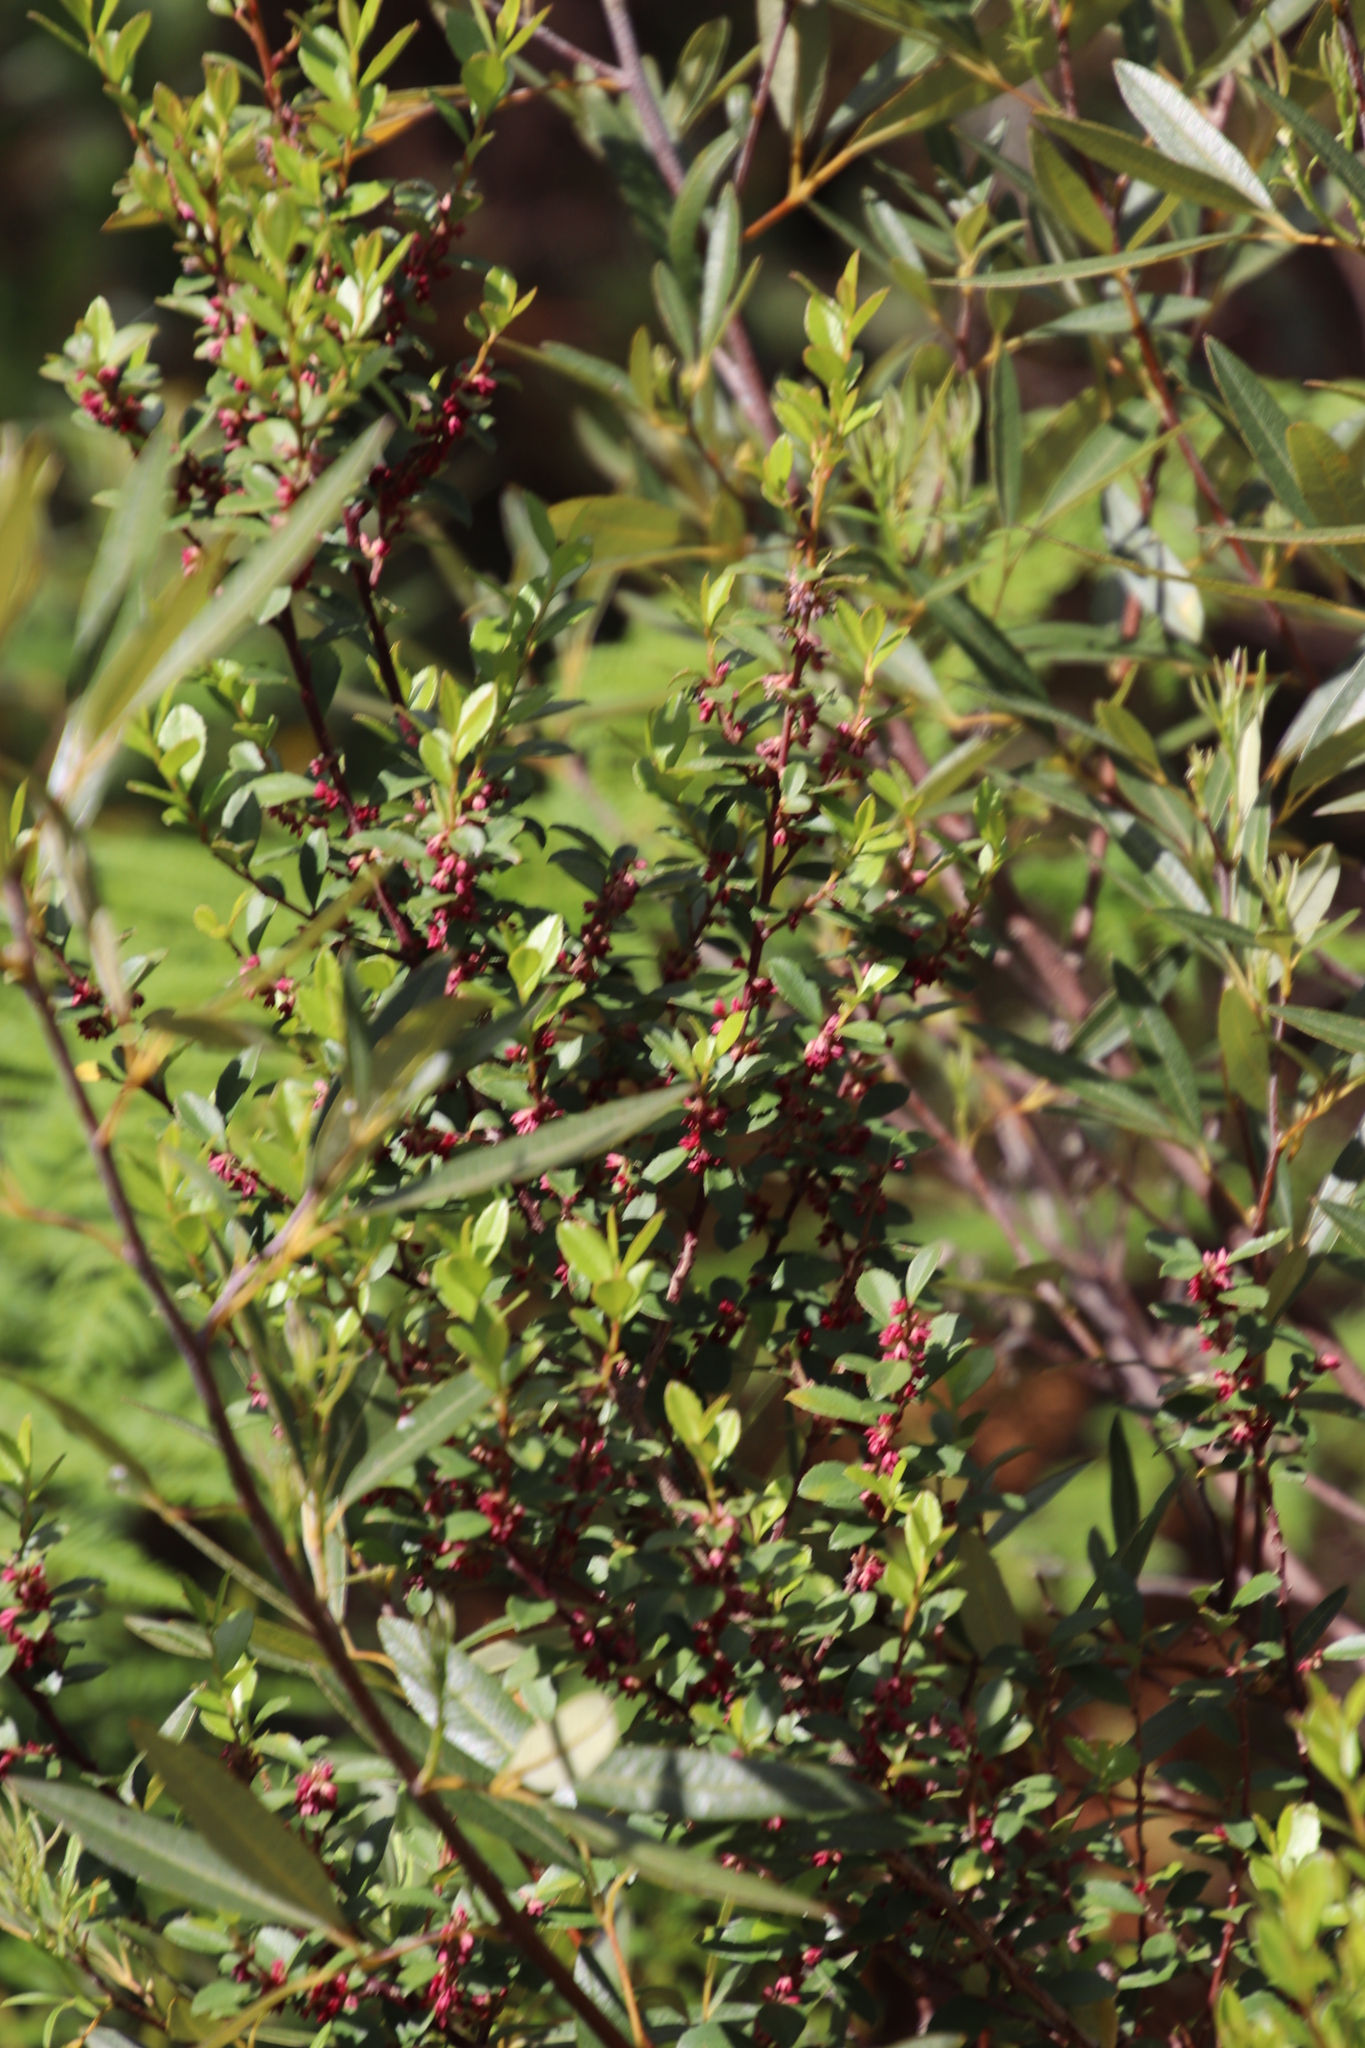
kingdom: Plantae
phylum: Tracheophyta
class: Magnoliopsida
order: Ericales
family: Primulaceae
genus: Myrsine
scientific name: Myrsine africana
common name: African-boxwood
